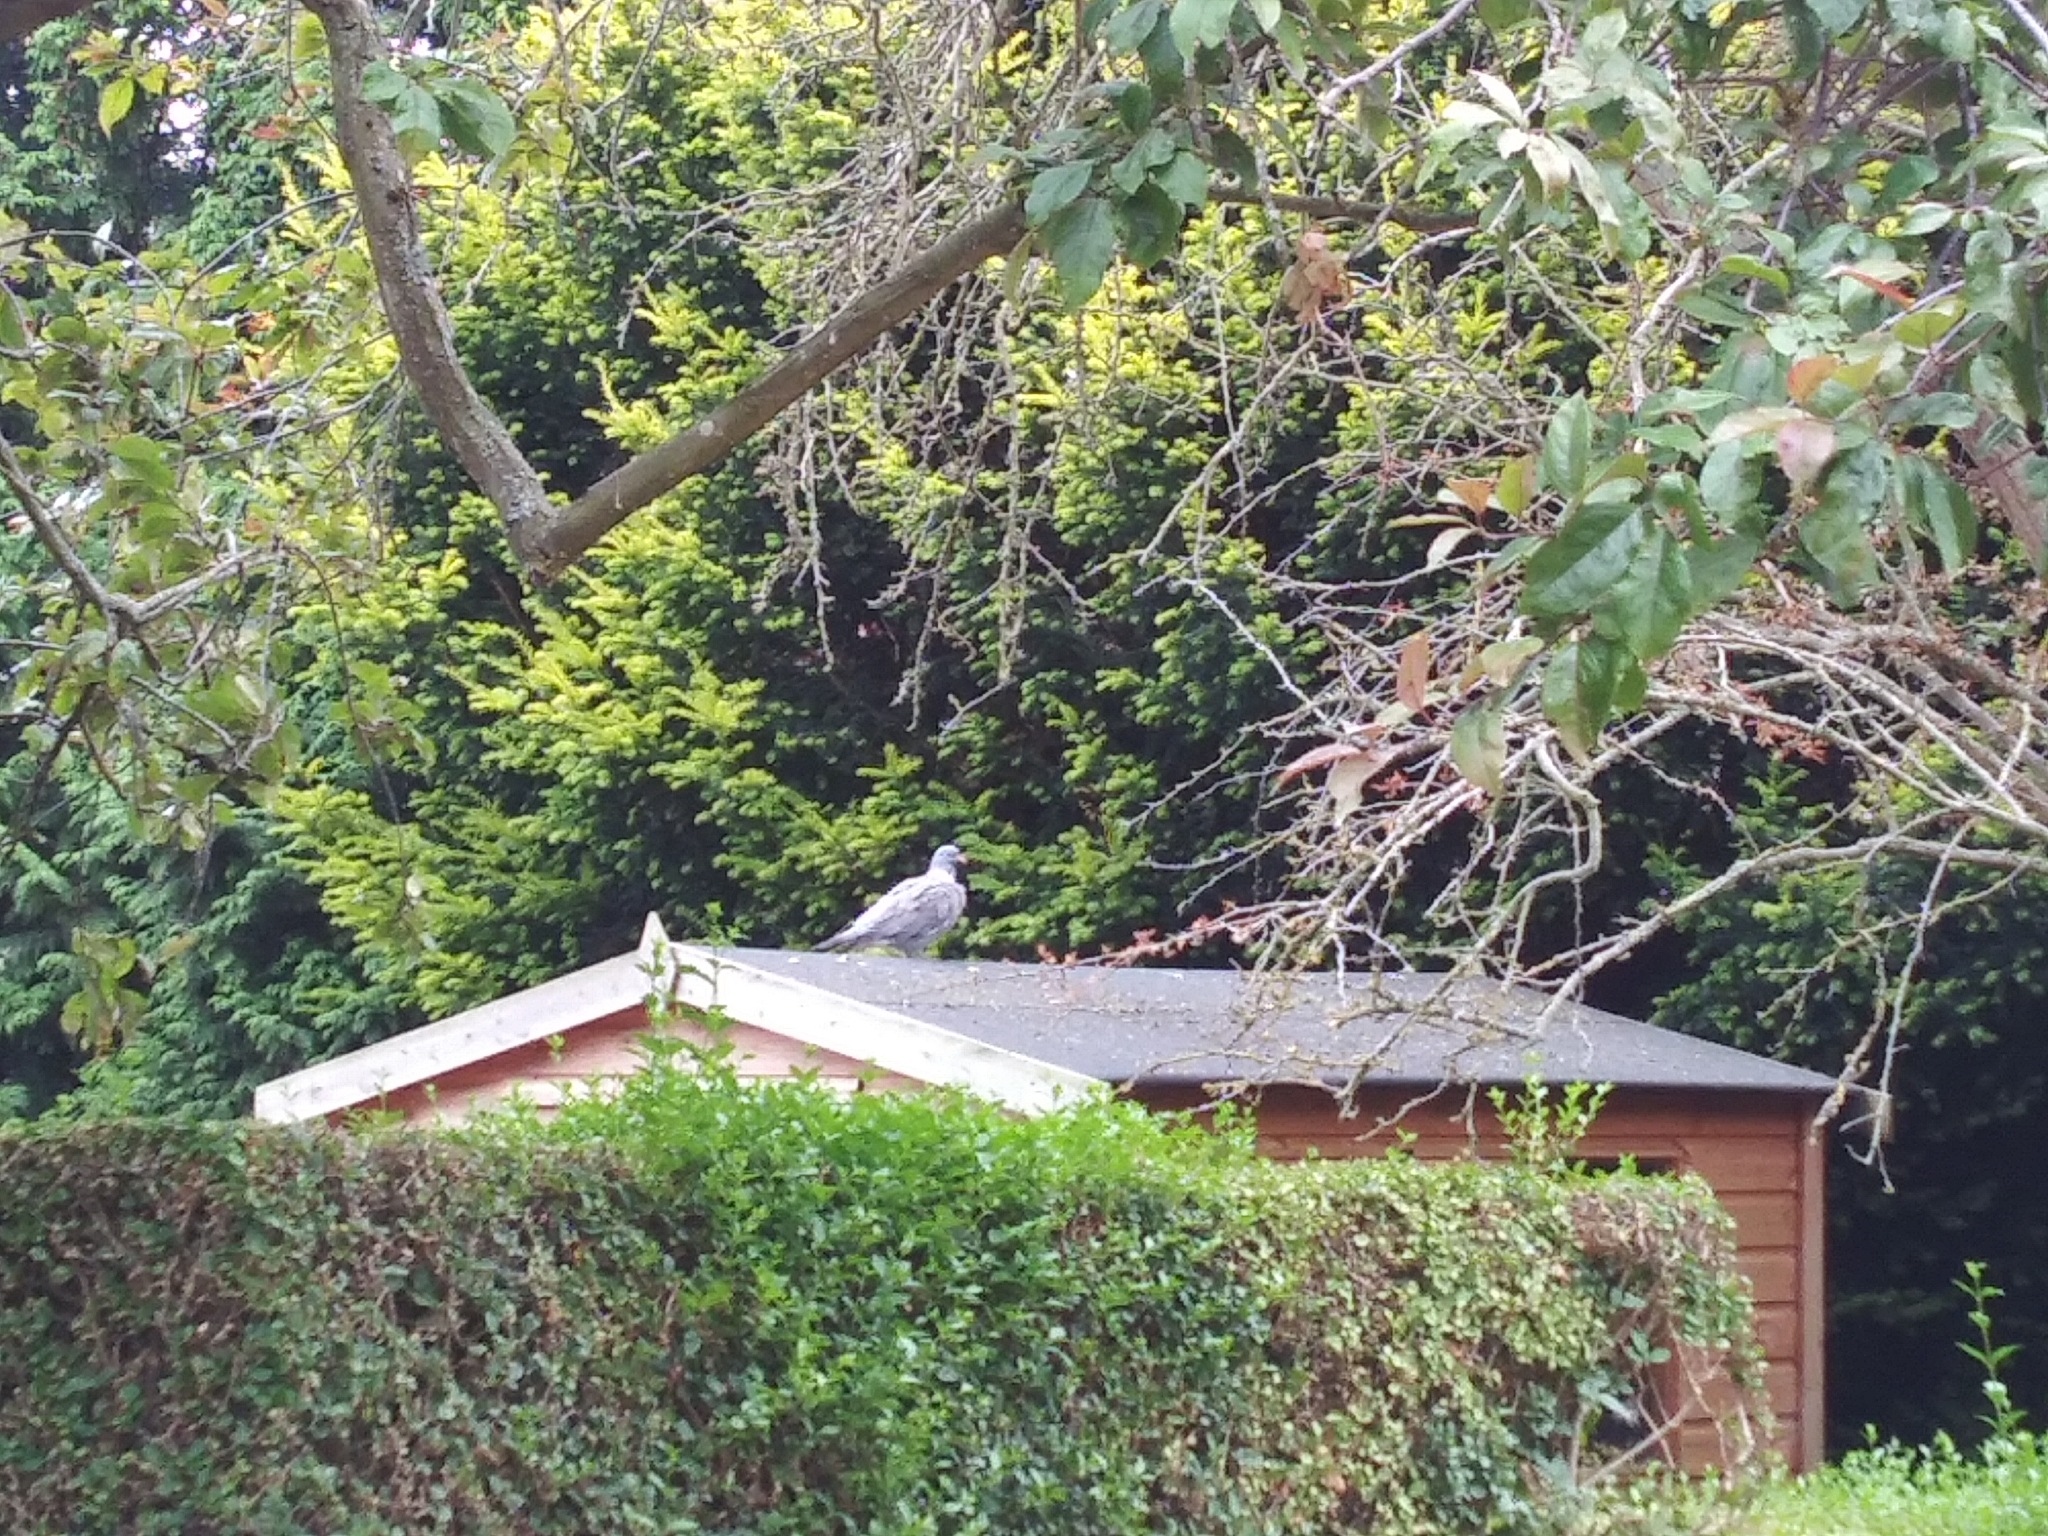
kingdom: Animalia
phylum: Chordata
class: Aves
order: Columbiformes
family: Columbidae
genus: Columba
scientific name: Columba palumbus
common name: Common wood pigeon
